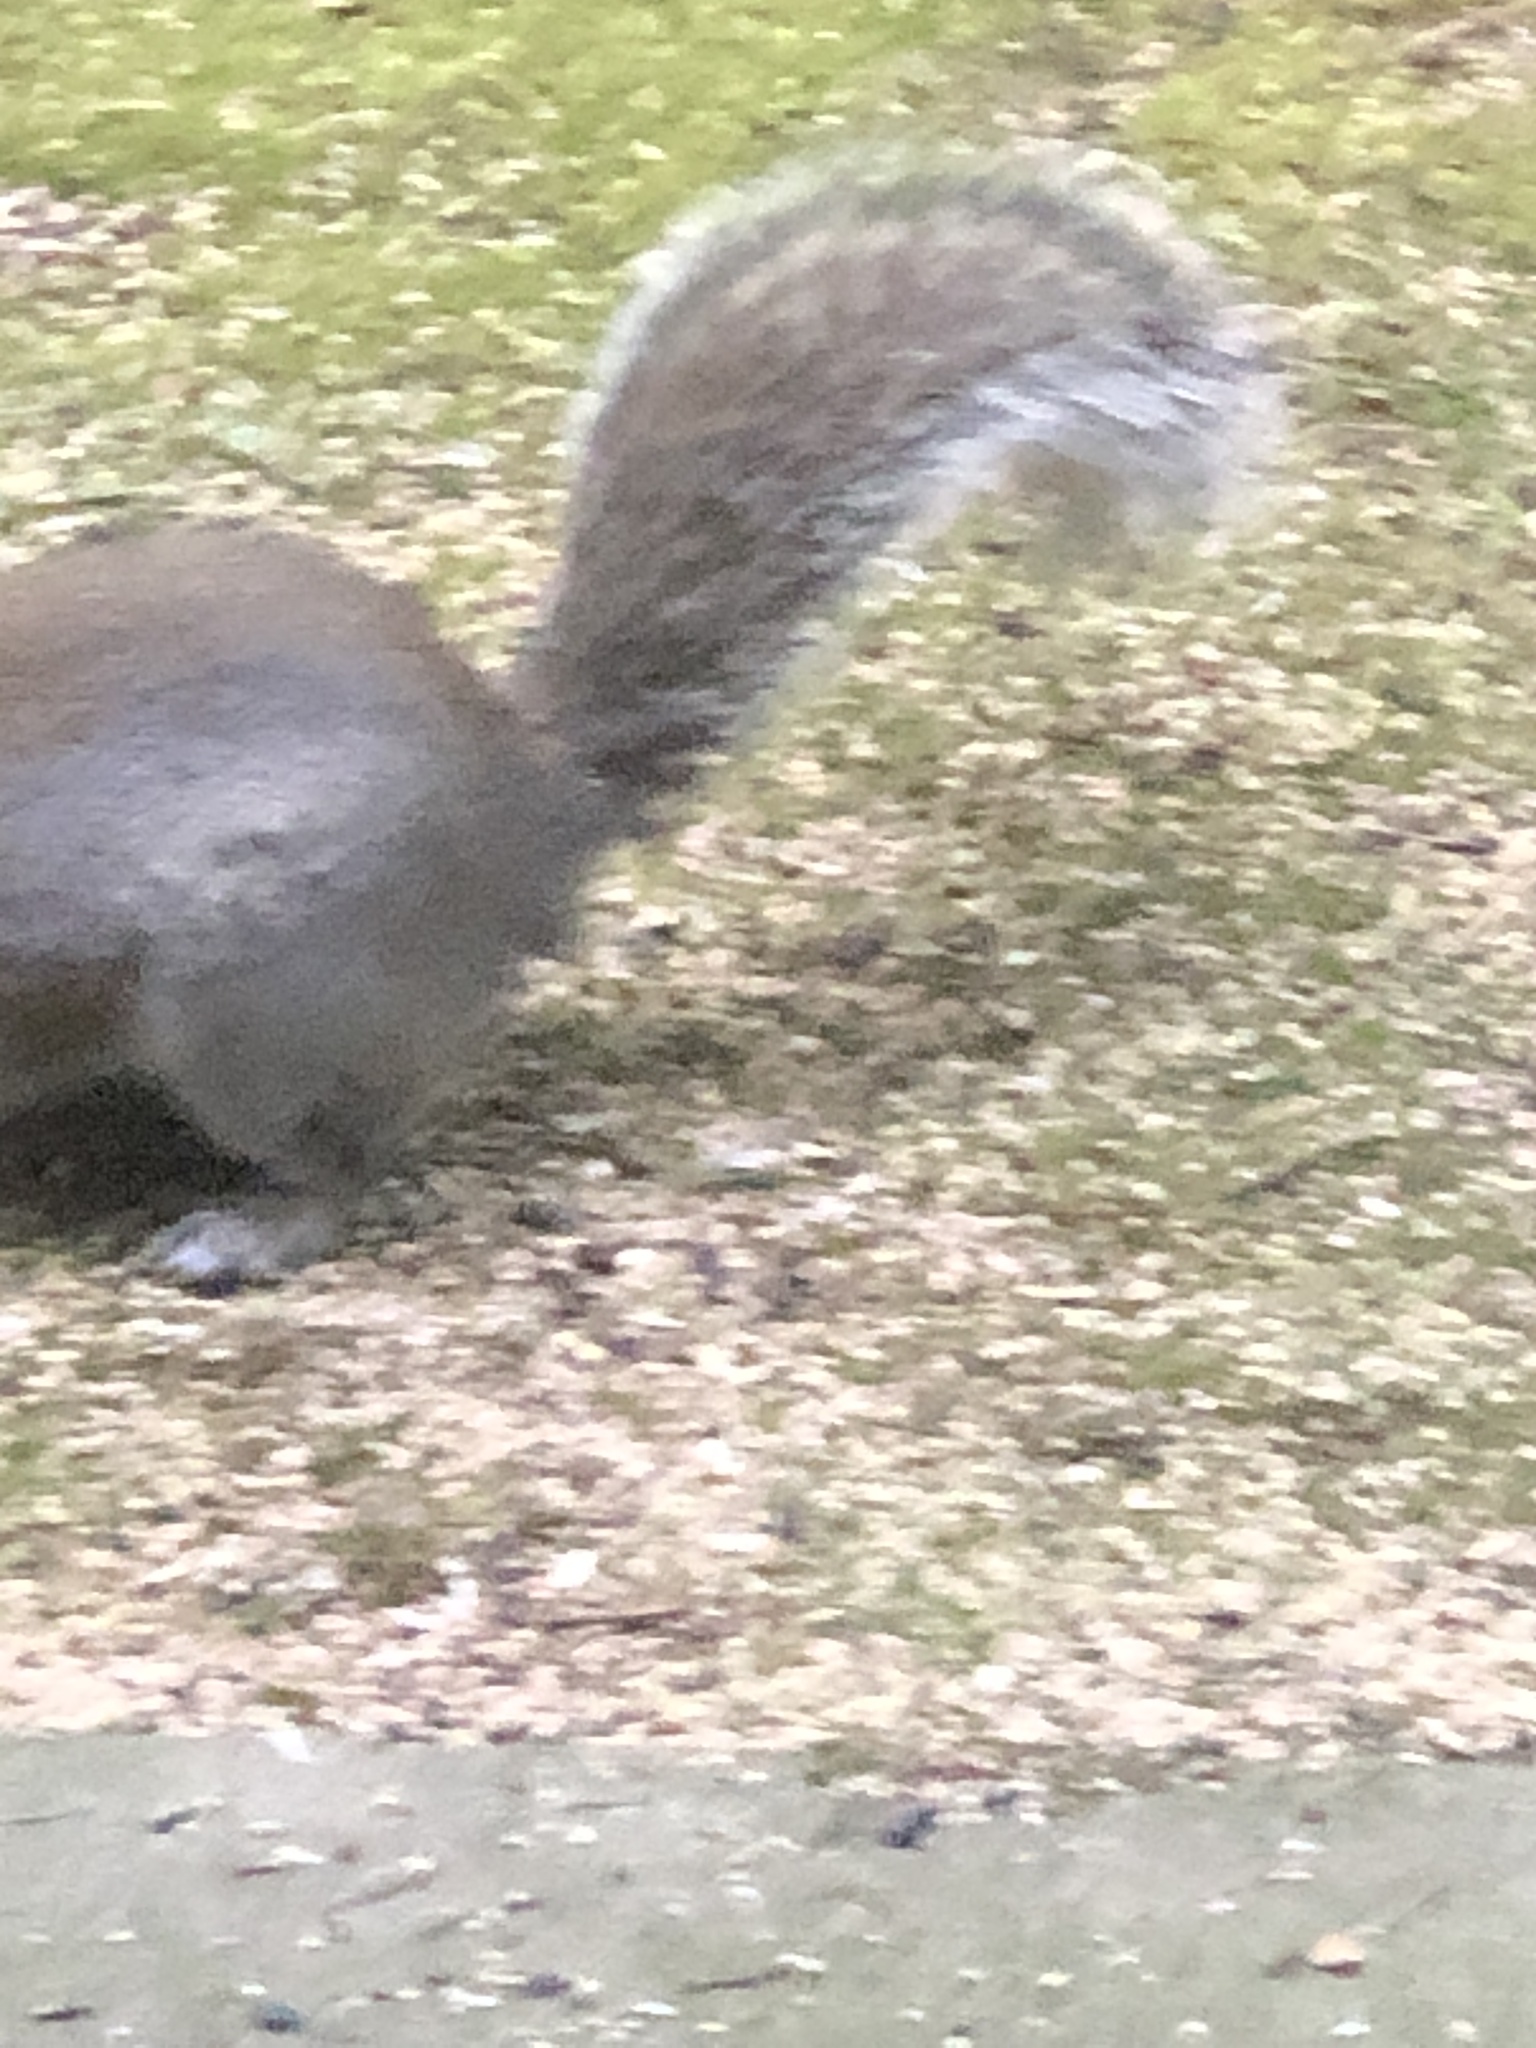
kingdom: Animalia
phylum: Chordata
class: Mammalia
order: Rodentia
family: Sciuridae
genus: Sciurus
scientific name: Sciurus carolinensis
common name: Eastern gray squirrel
